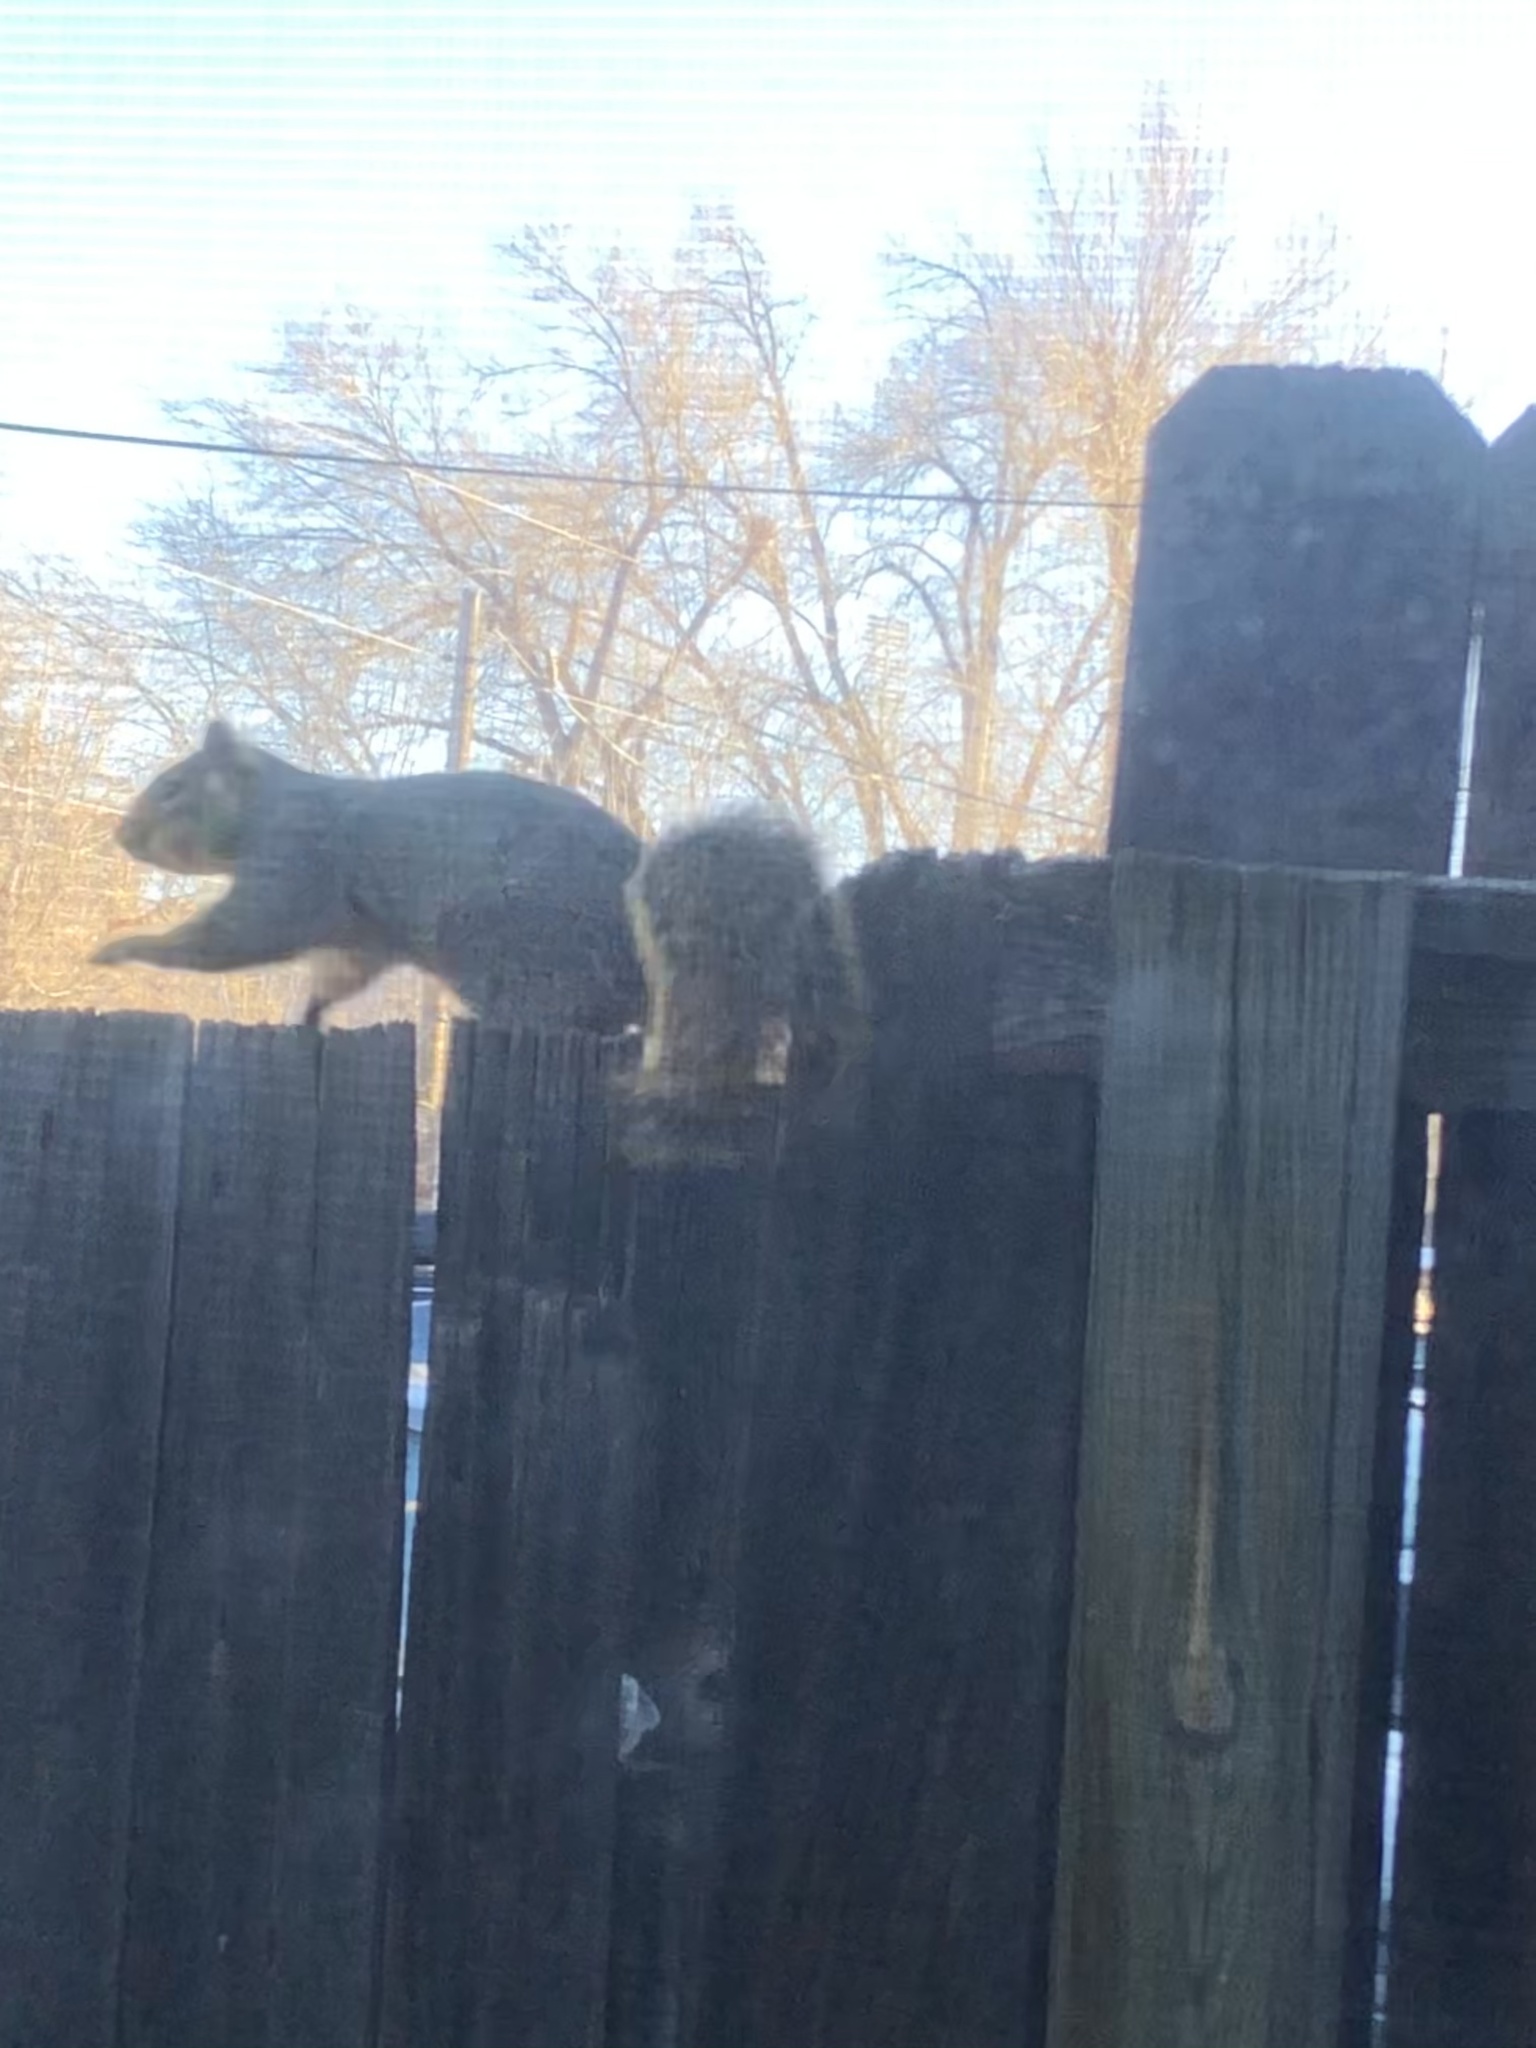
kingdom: Animalia
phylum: Chordata
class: Mammalia
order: Rodentia
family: Sciuridae
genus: Sciurus
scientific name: Sciurus niger
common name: Fox squirrel
